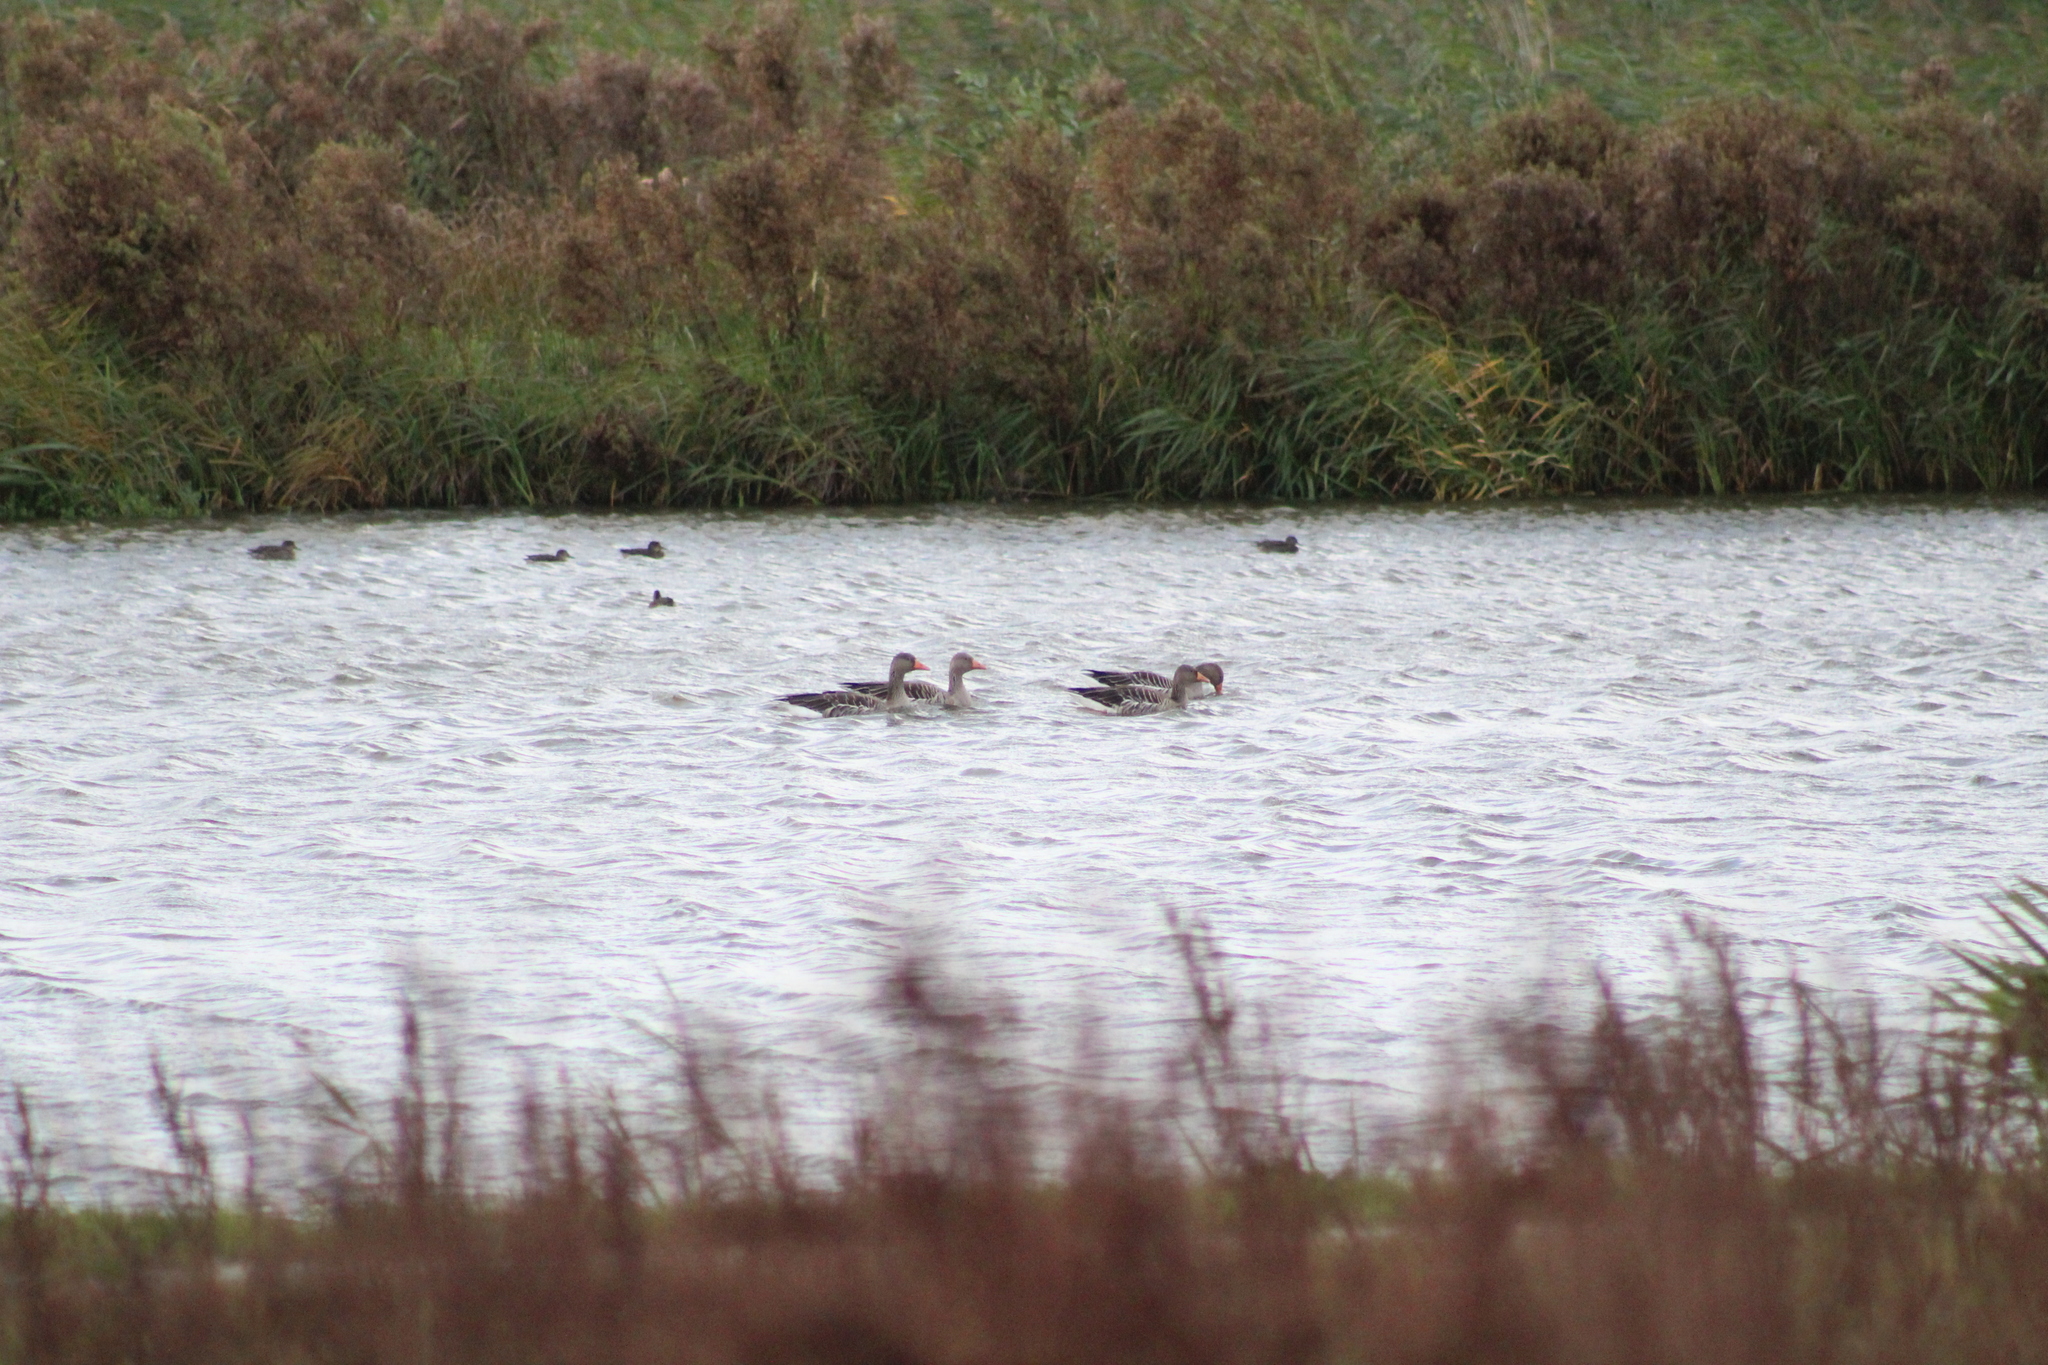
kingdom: Animalia
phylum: Chordata
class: Aves
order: Anseriformes
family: Anatidae
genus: Anser
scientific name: Anser anser
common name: Greylag goose
